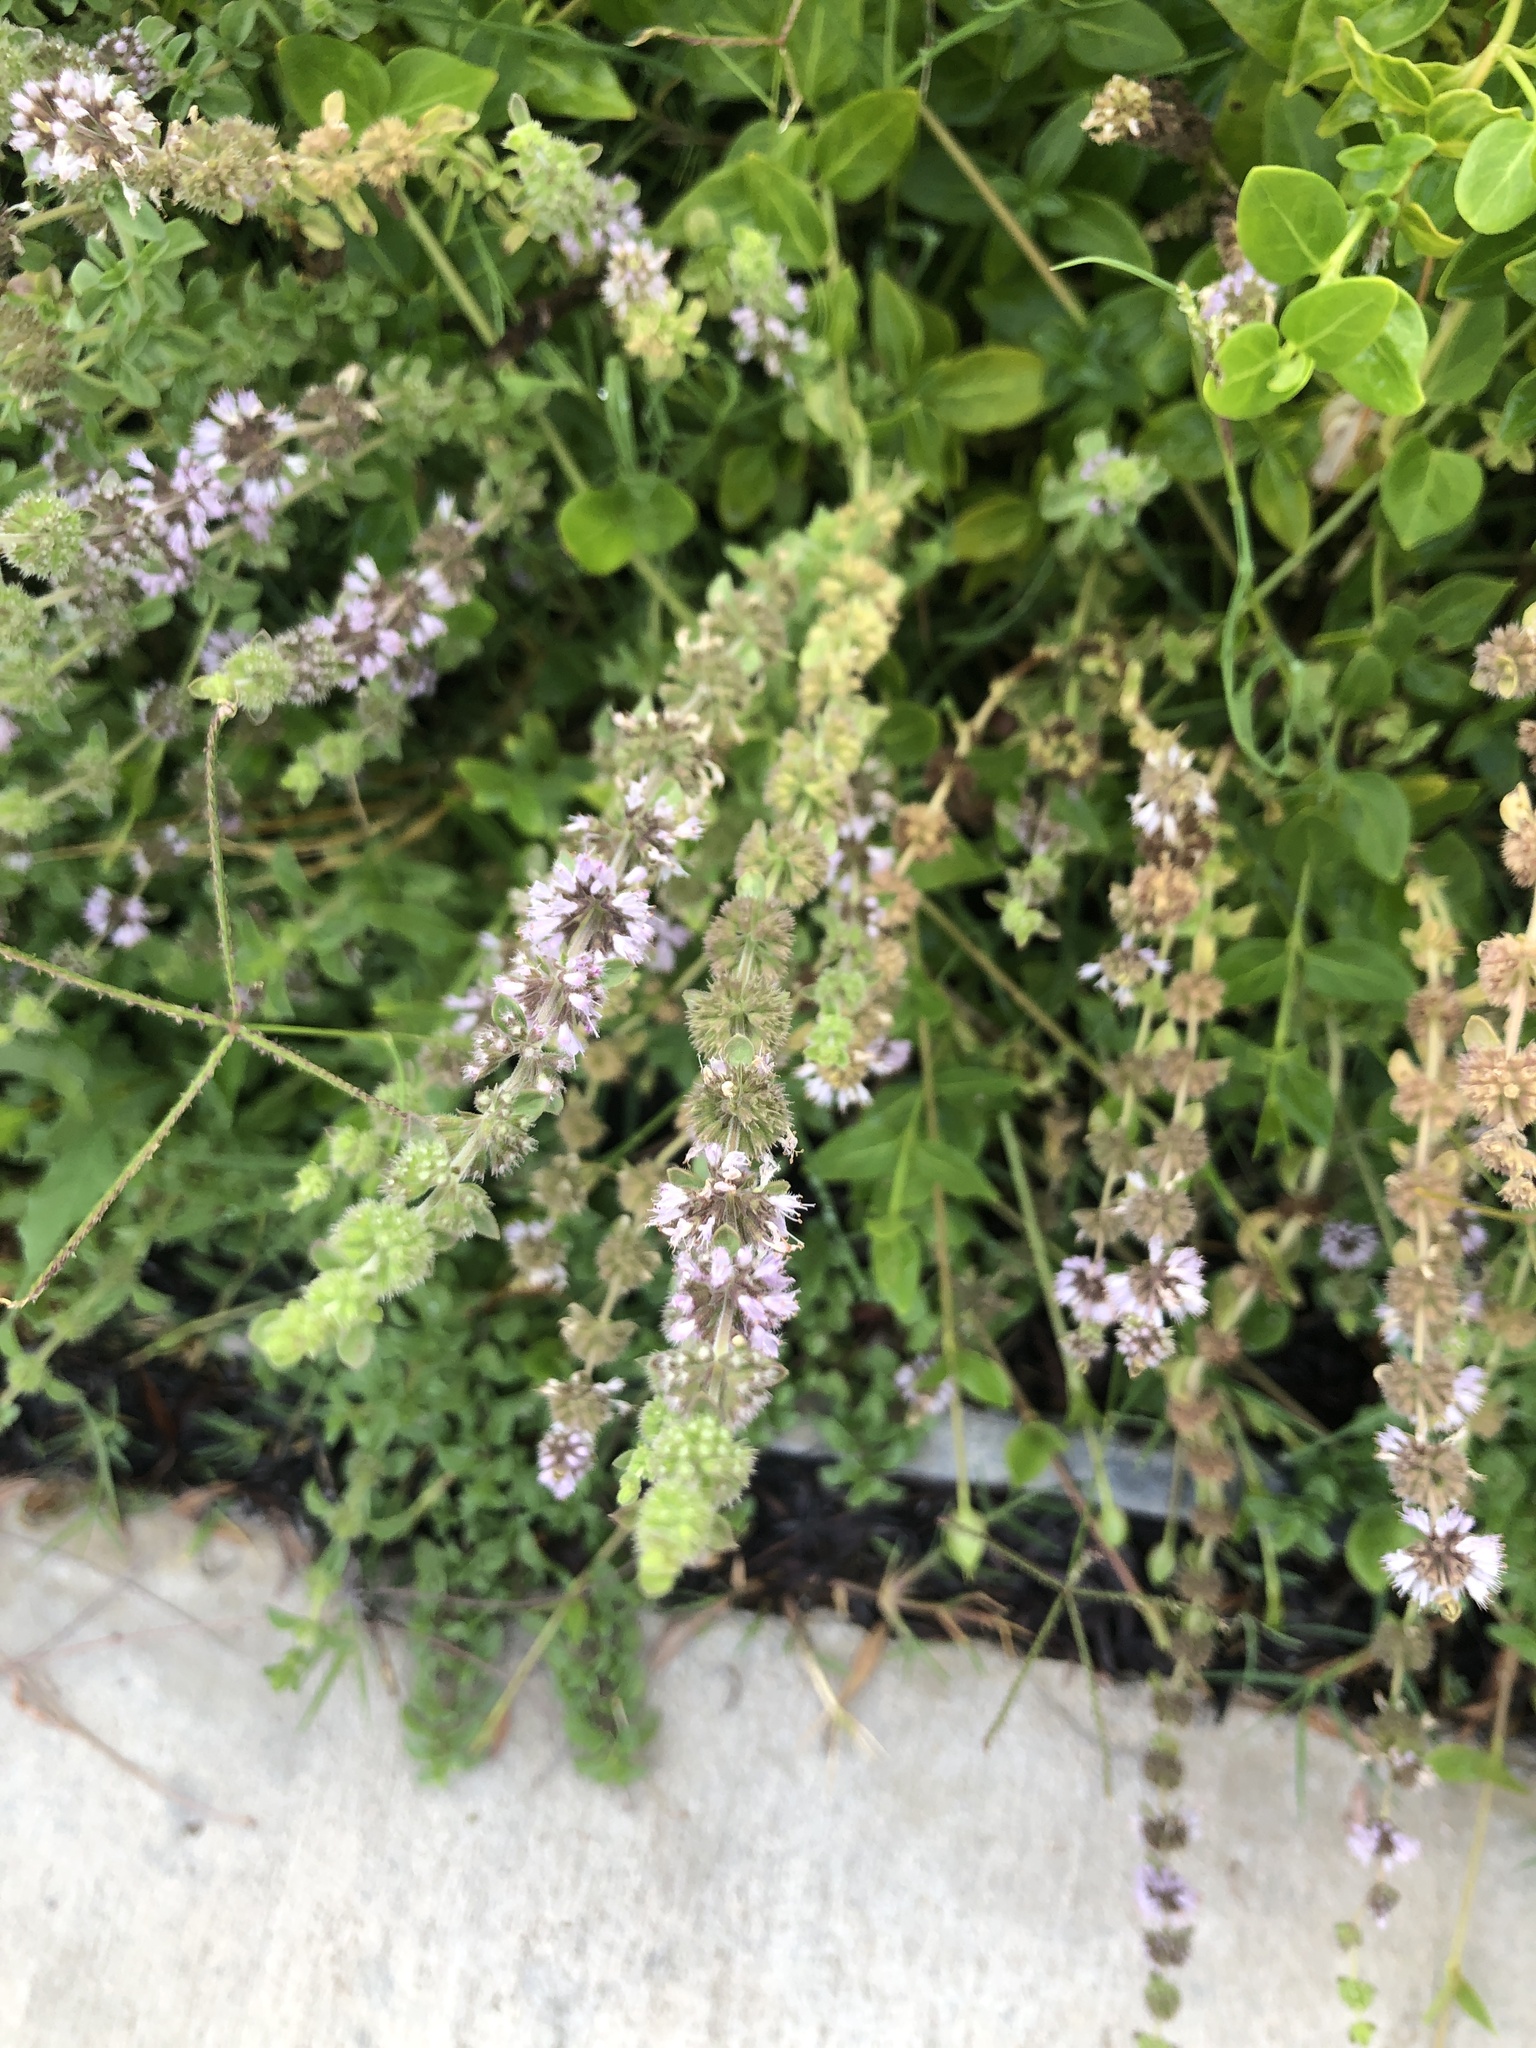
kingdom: Plantae
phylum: Tracheophyta
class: Magnoliopsida
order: Lamiales
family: Lamiaceae
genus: Mentha
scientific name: Mentha pulegium
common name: Pennyroyal
